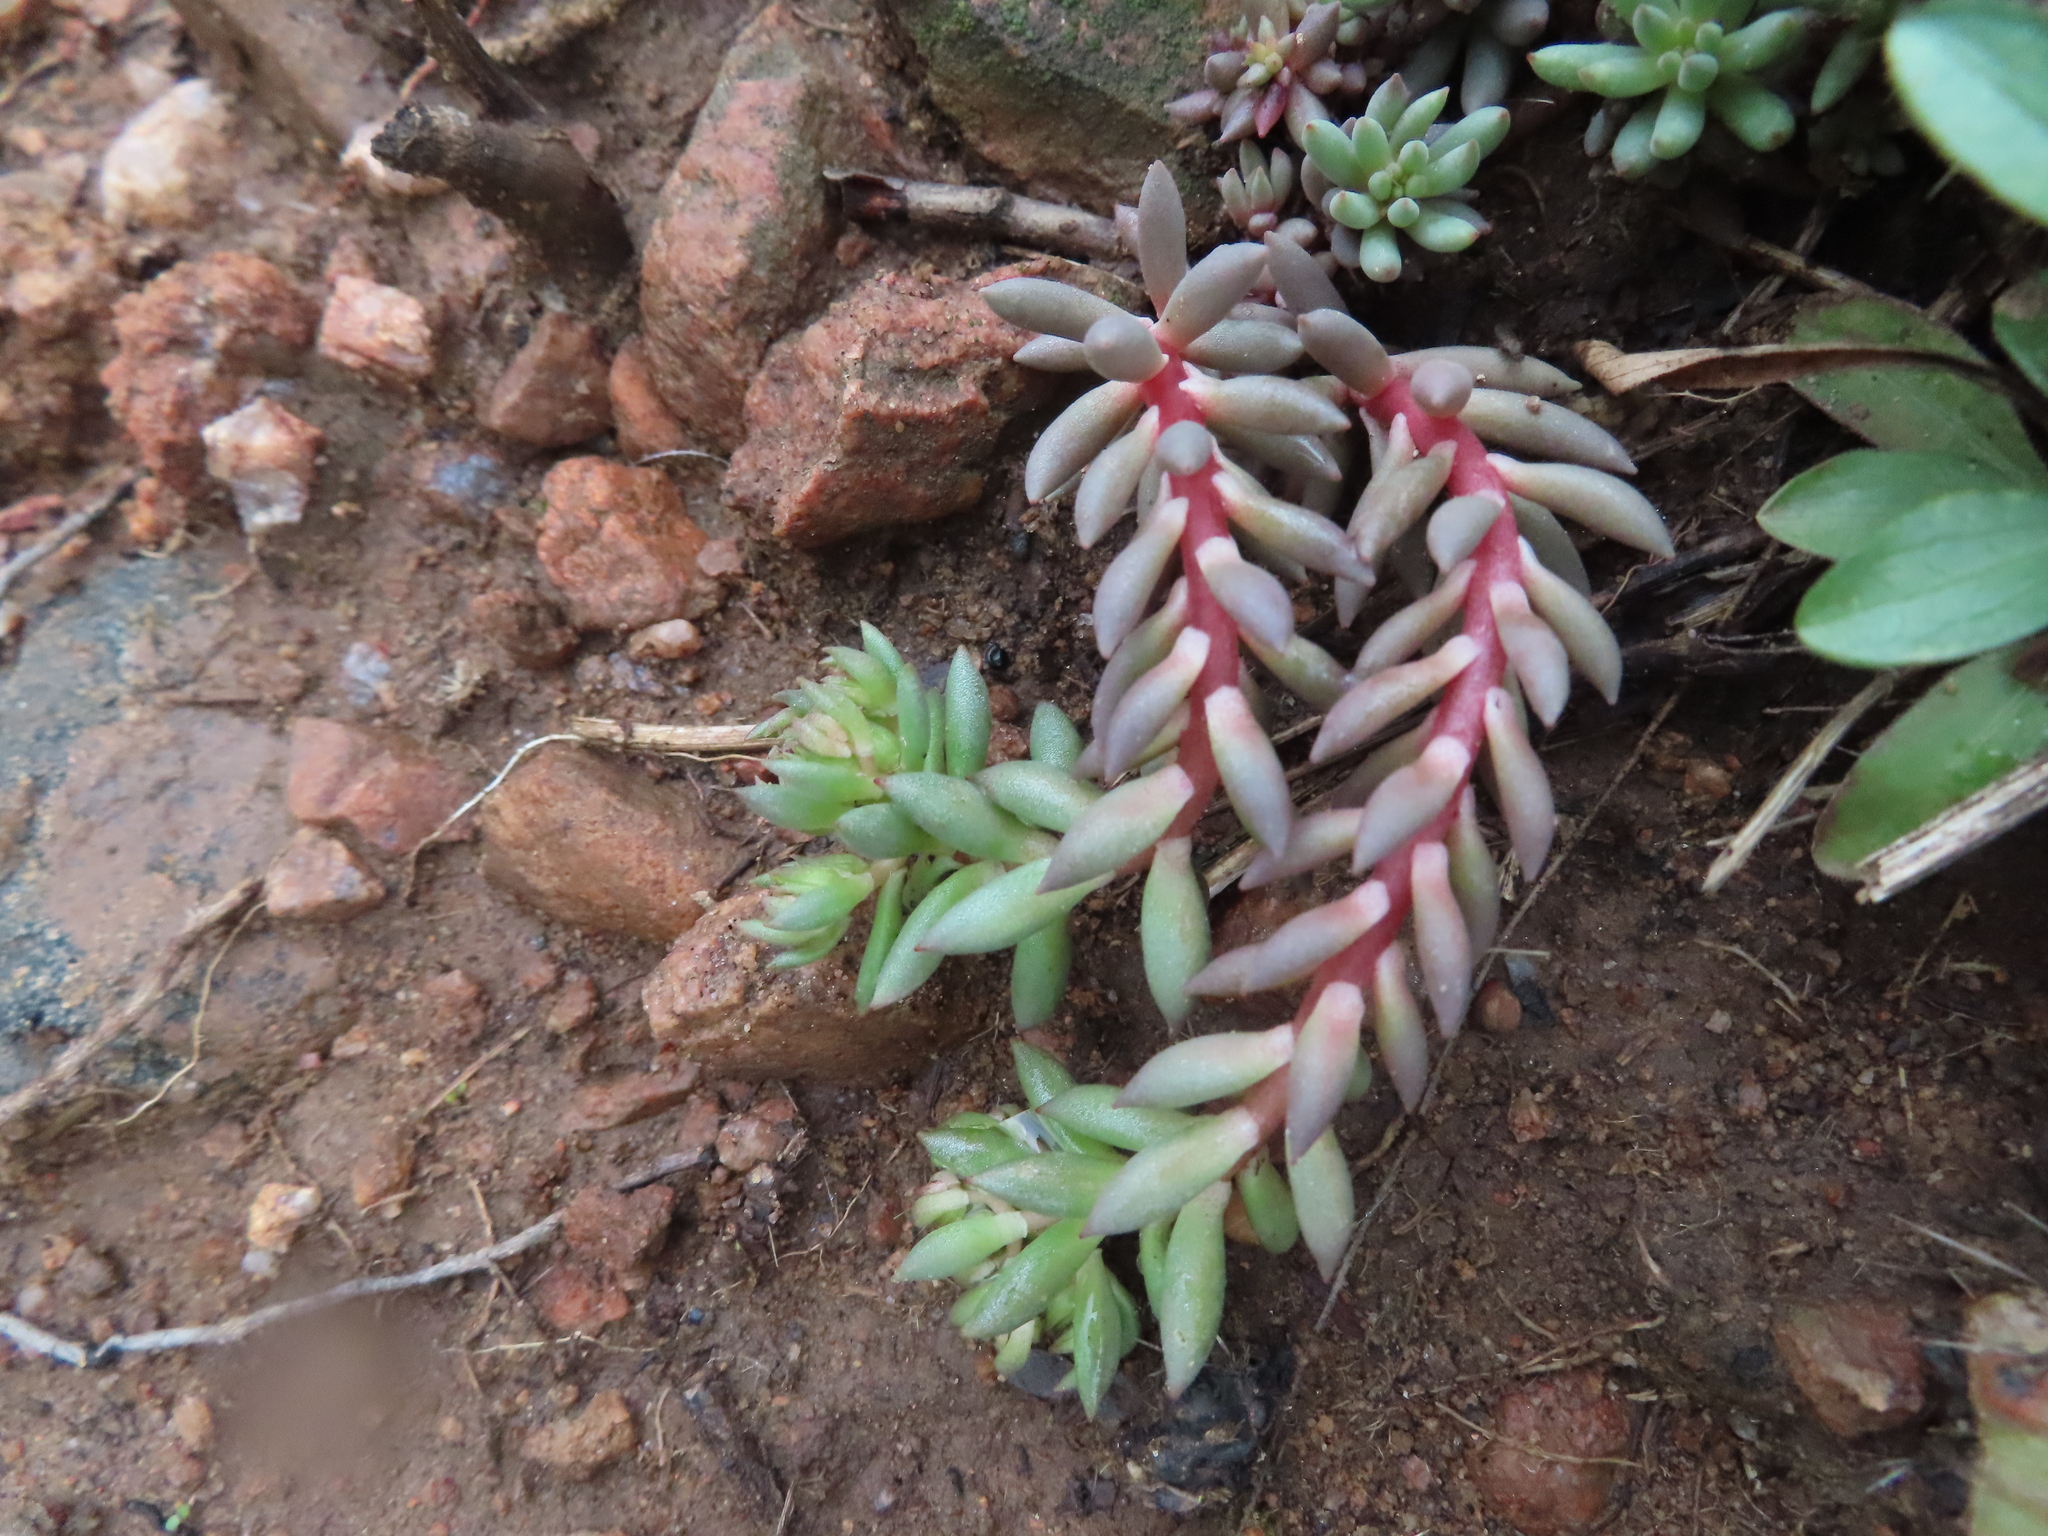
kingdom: Plantae
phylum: Tracheophyta
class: Magnoliopsida
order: Saxifragales
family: Crassulaceae
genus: Sedum
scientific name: Sedum lanceolatum
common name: Common stonecrop
